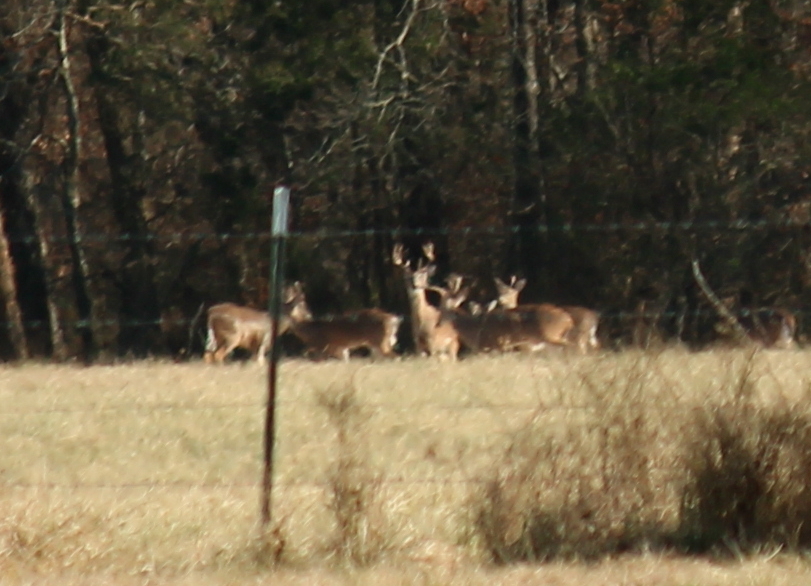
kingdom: Animalia
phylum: Chordata
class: Mammalia
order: Artiodactyla
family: Cervidae
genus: Odocoileus
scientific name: Odocoileus virginianus
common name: White-tailed deer
